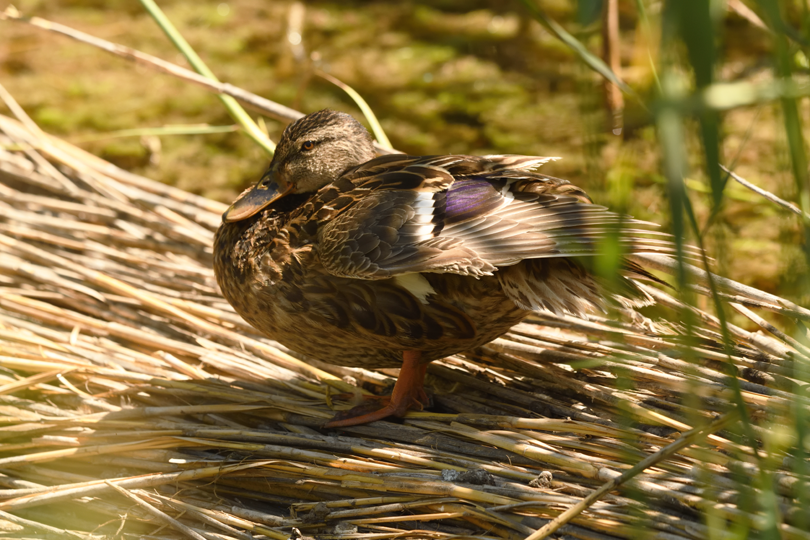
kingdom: Animalia
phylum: Chordata
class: Aves
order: Anseriformes
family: Anatidae
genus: Anas
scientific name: Anas platyrhynchos
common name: Mallard
